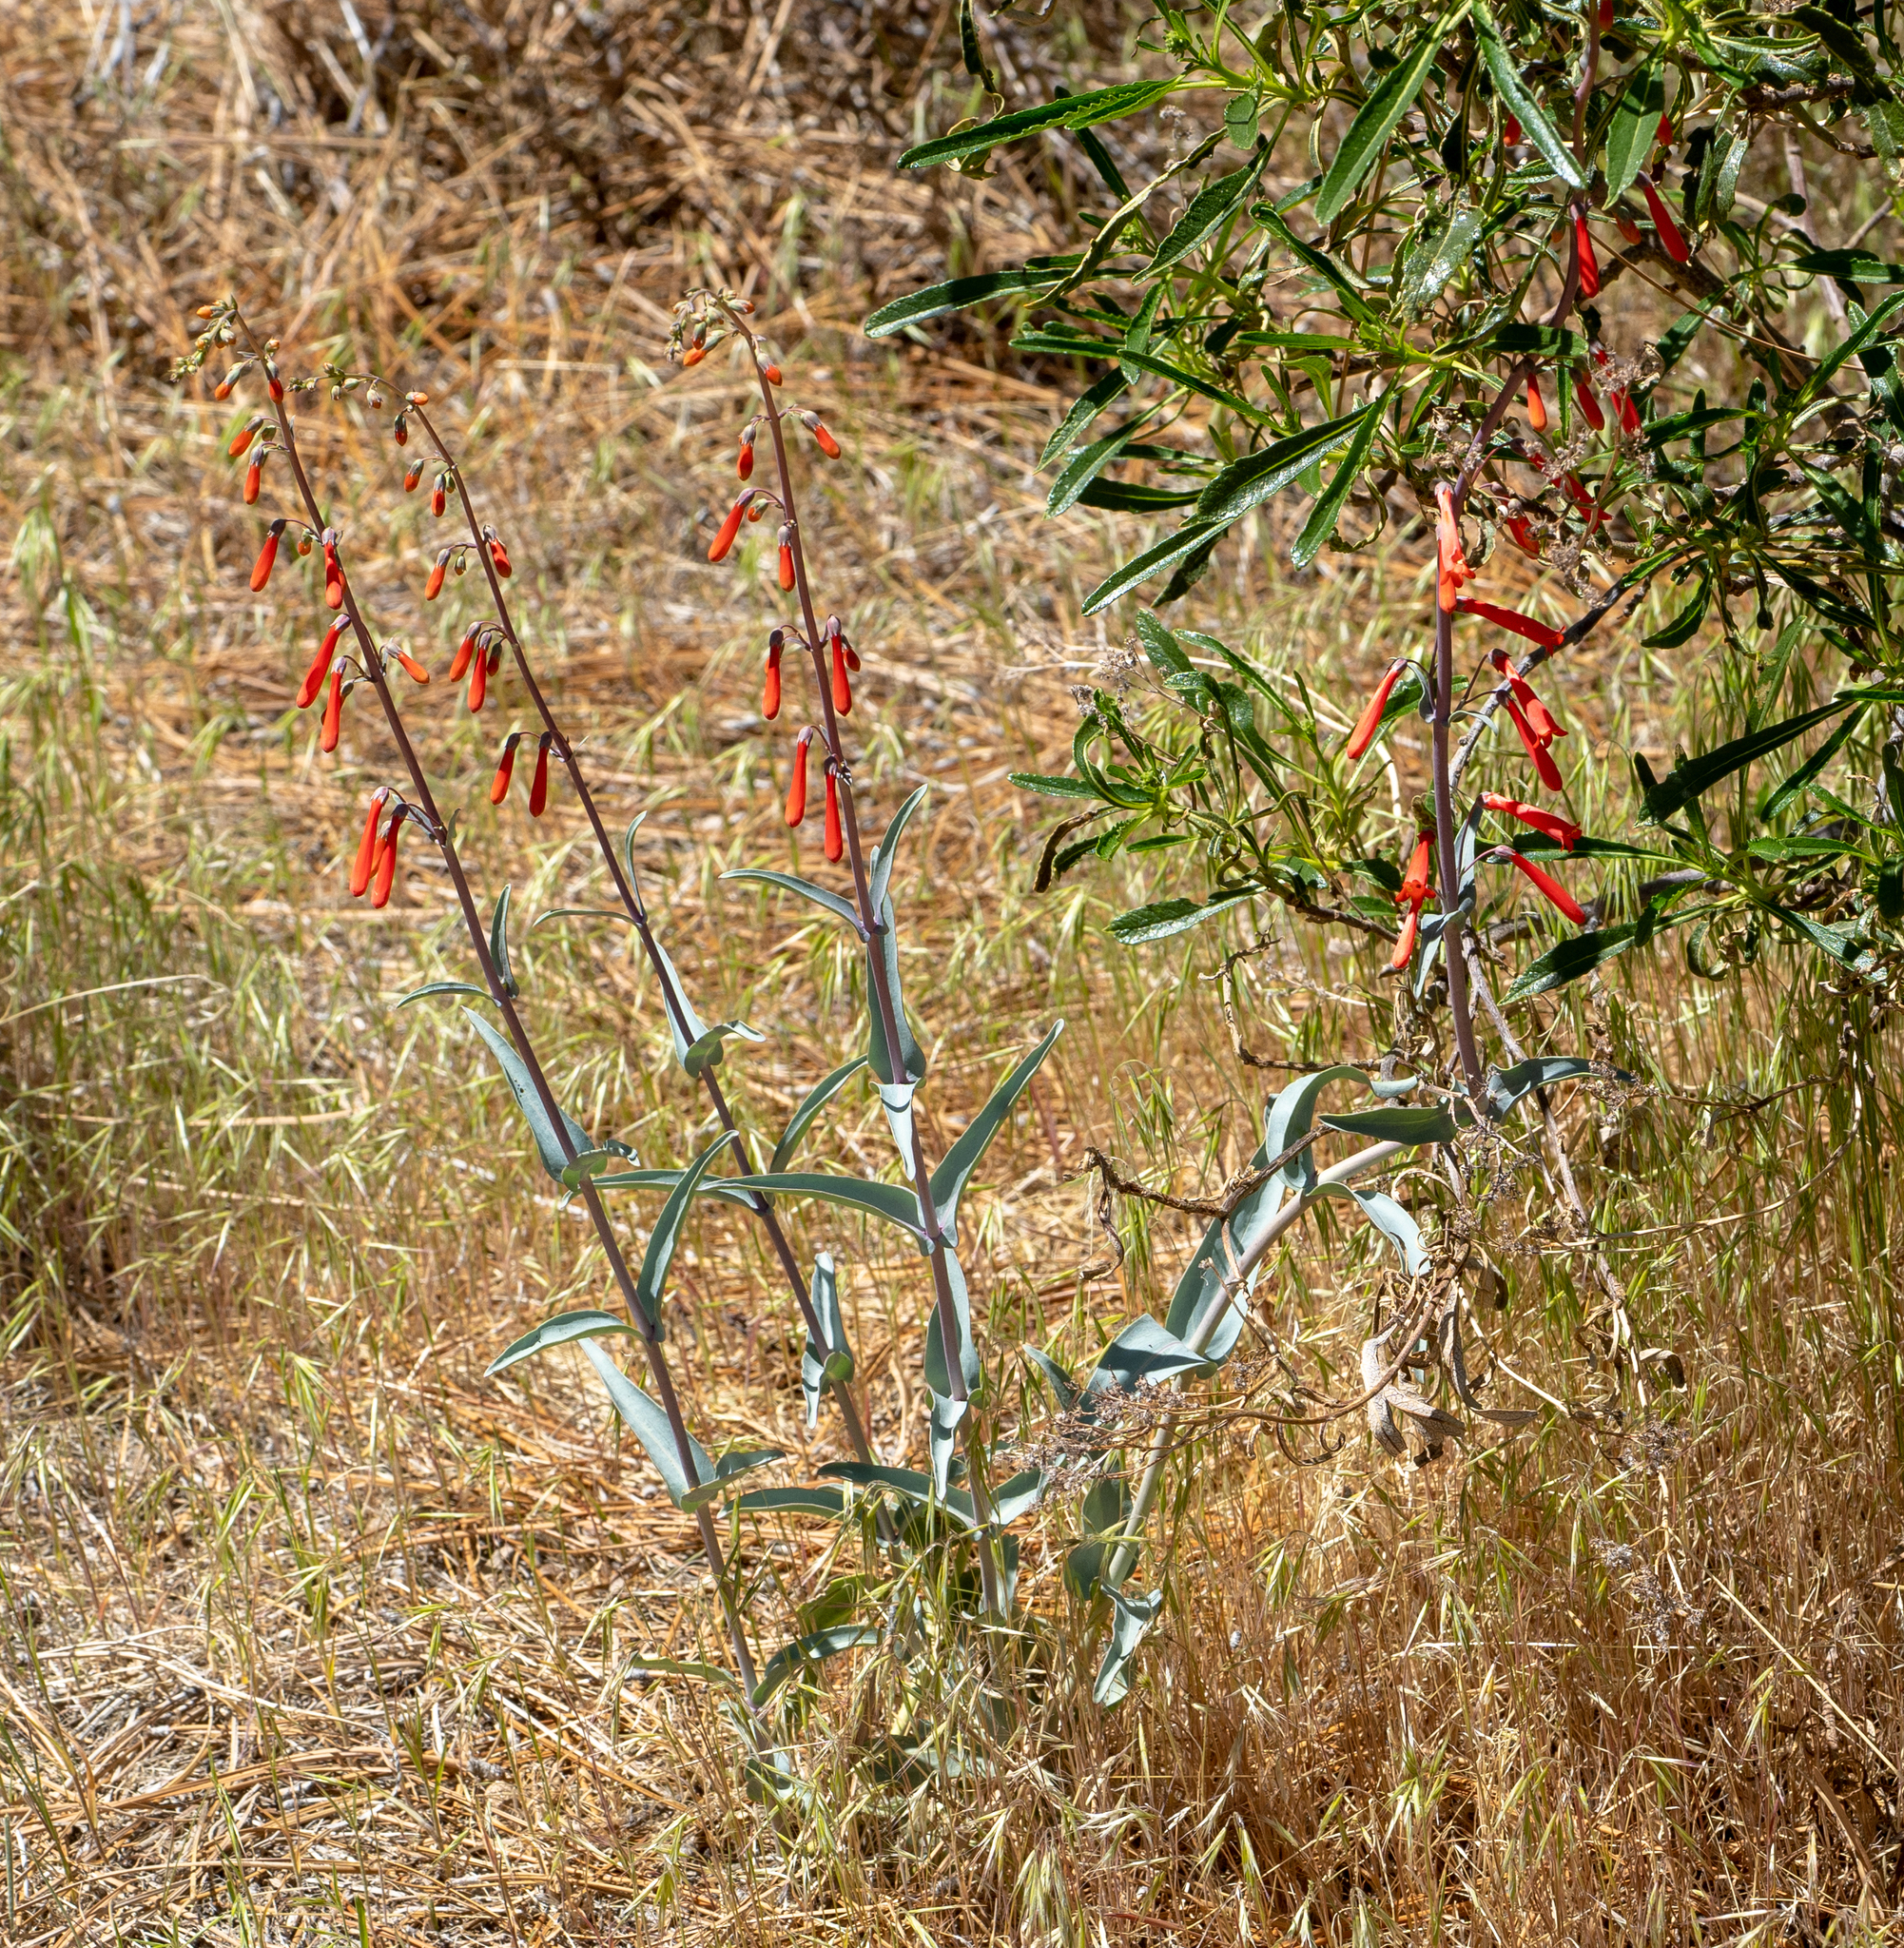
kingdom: Plantae
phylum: Tracheophyta
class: Magnoliopsida
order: Lamiales
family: Plantaginaceae
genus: Penstemon
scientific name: Penstemon centranthifolius
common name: Scarlet bugler
